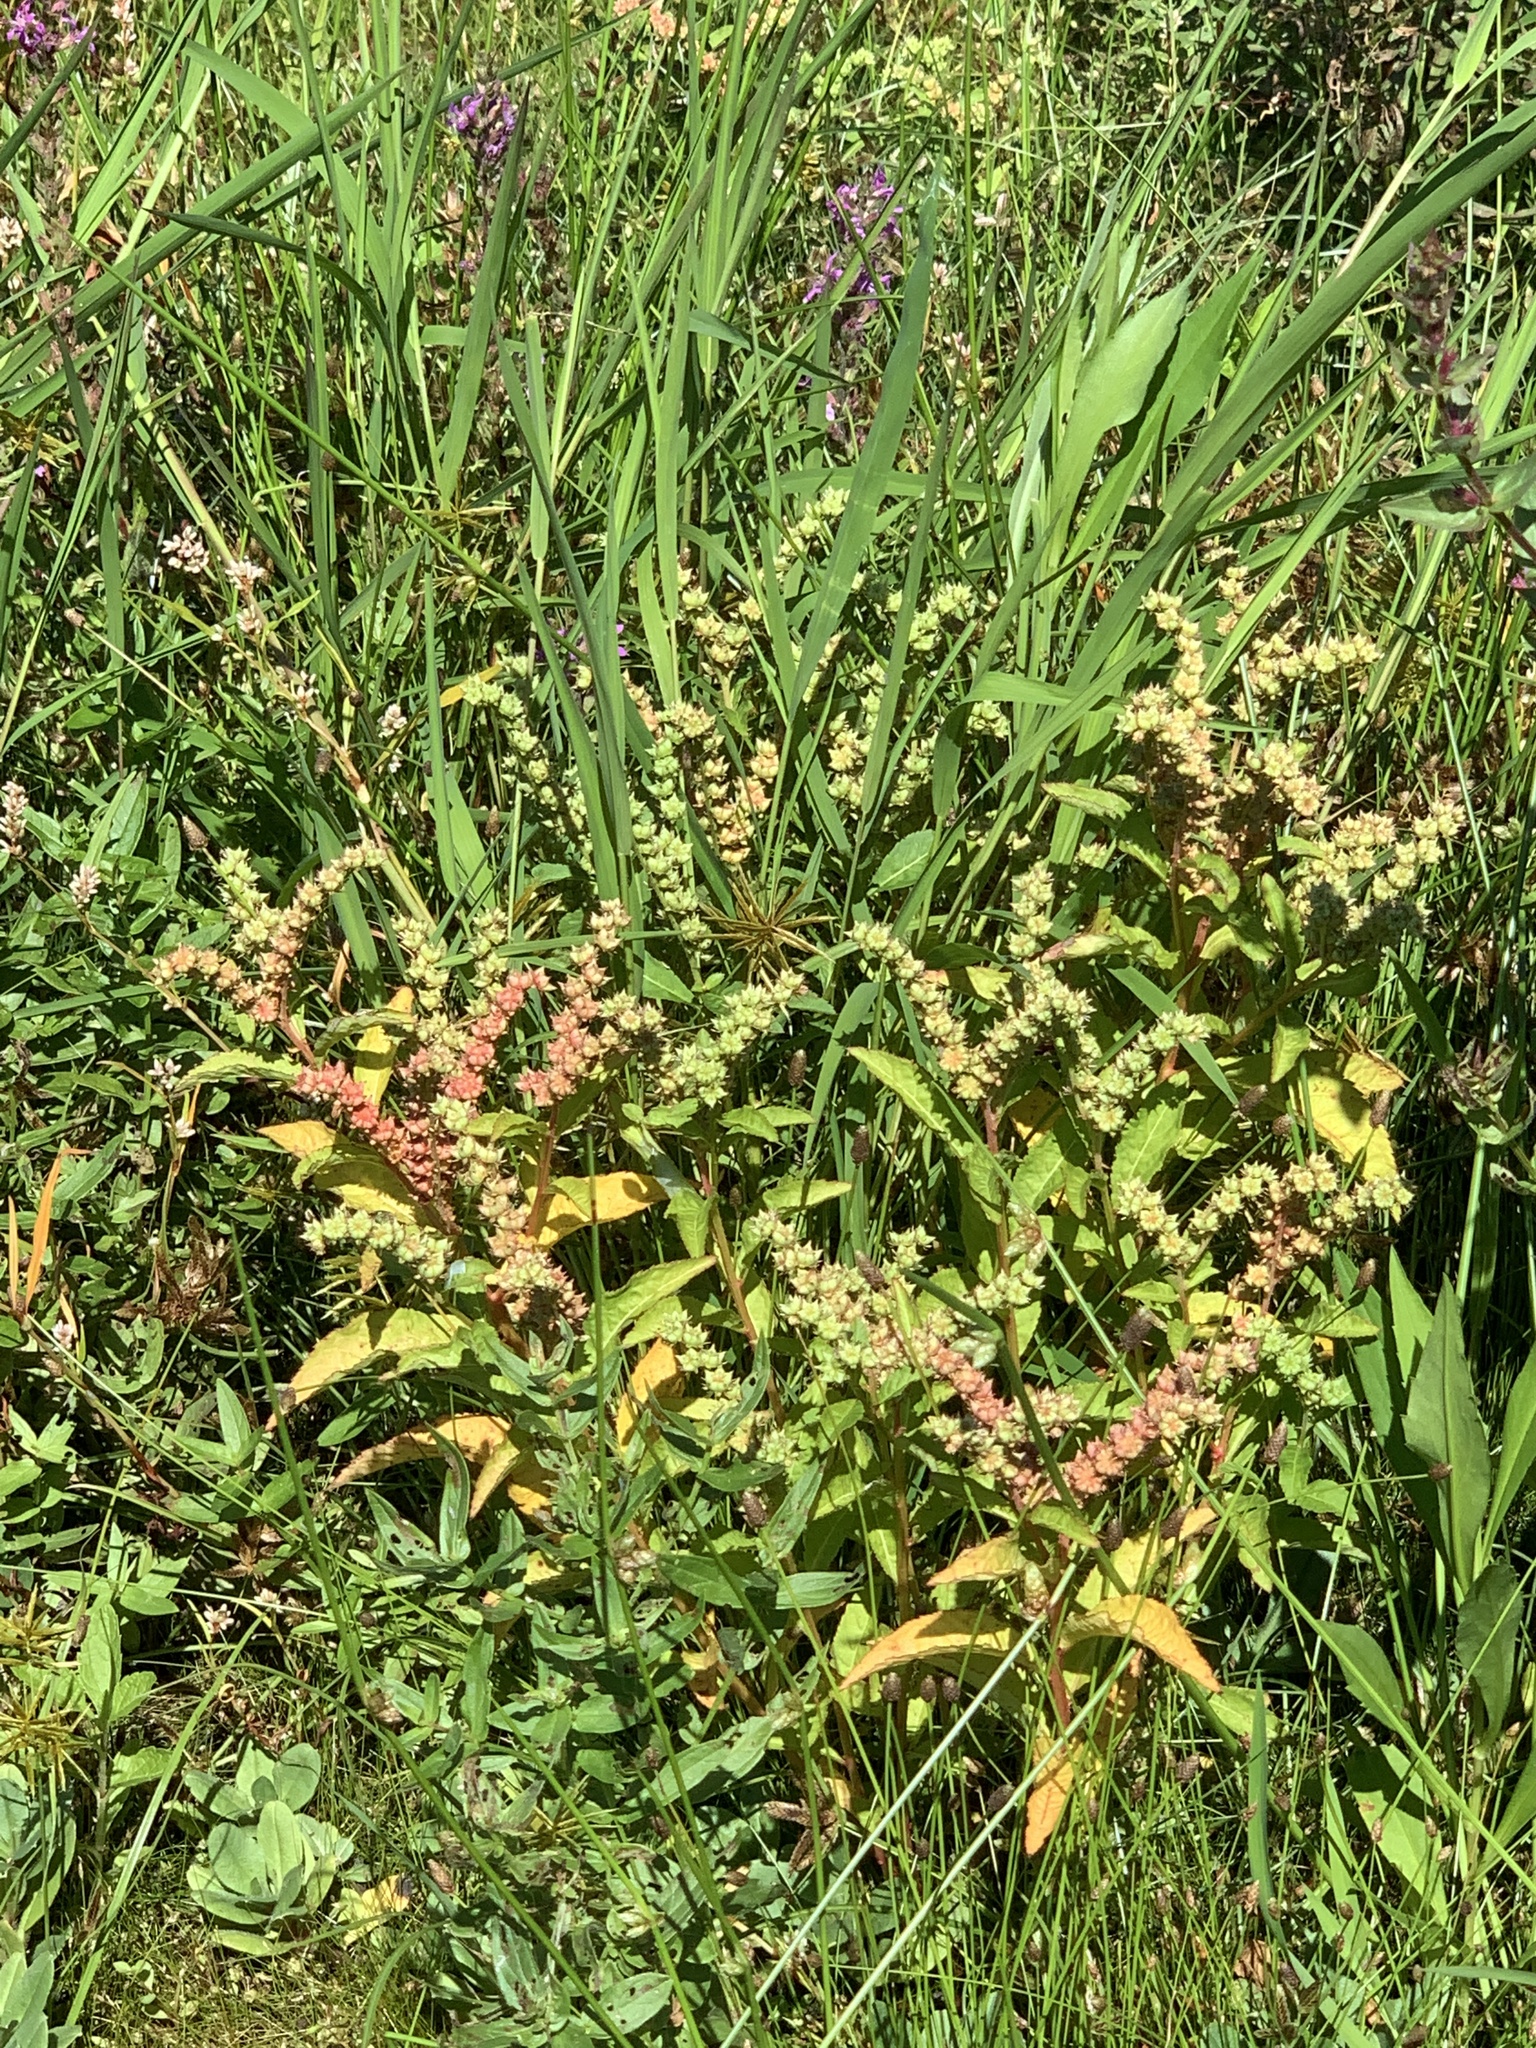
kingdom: Plantae
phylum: Tracheophyta
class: Magnoliopsida
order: Saxifragales
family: Penthoraceae
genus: Penthorum
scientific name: Penthorum sedoides
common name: Ditch stonecrop
